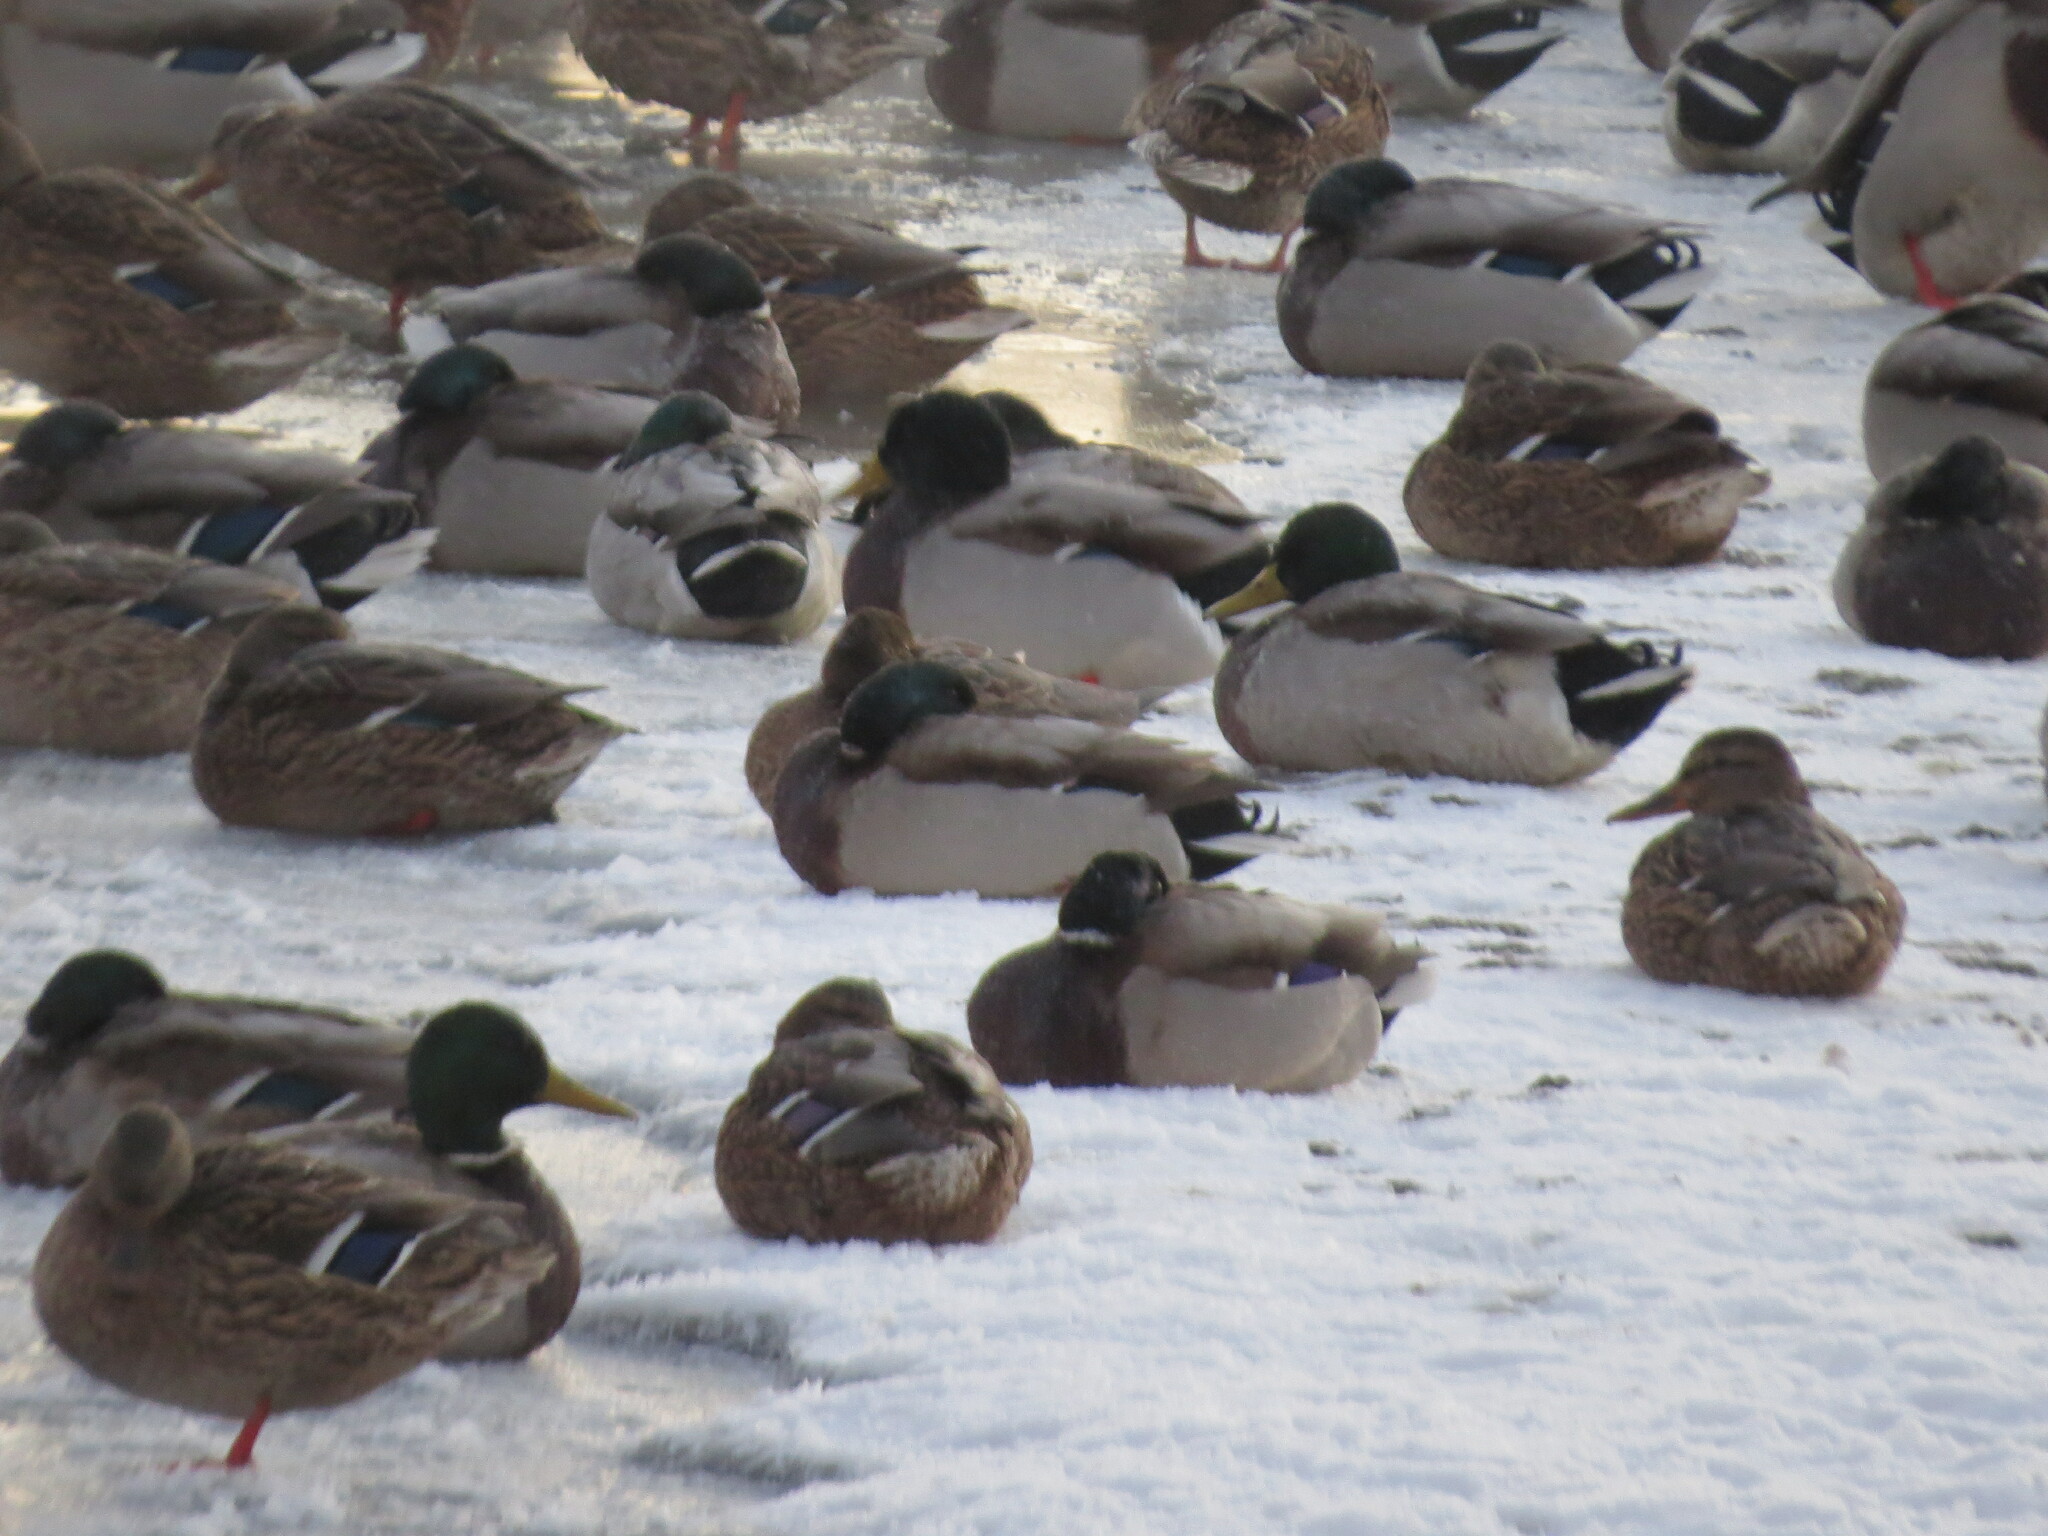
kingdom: Animalia
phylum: Chordata
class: Aves
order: Anseriformes
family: Anatidae
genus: Anas
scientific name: Anas platyrhynchos
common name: Mallard
